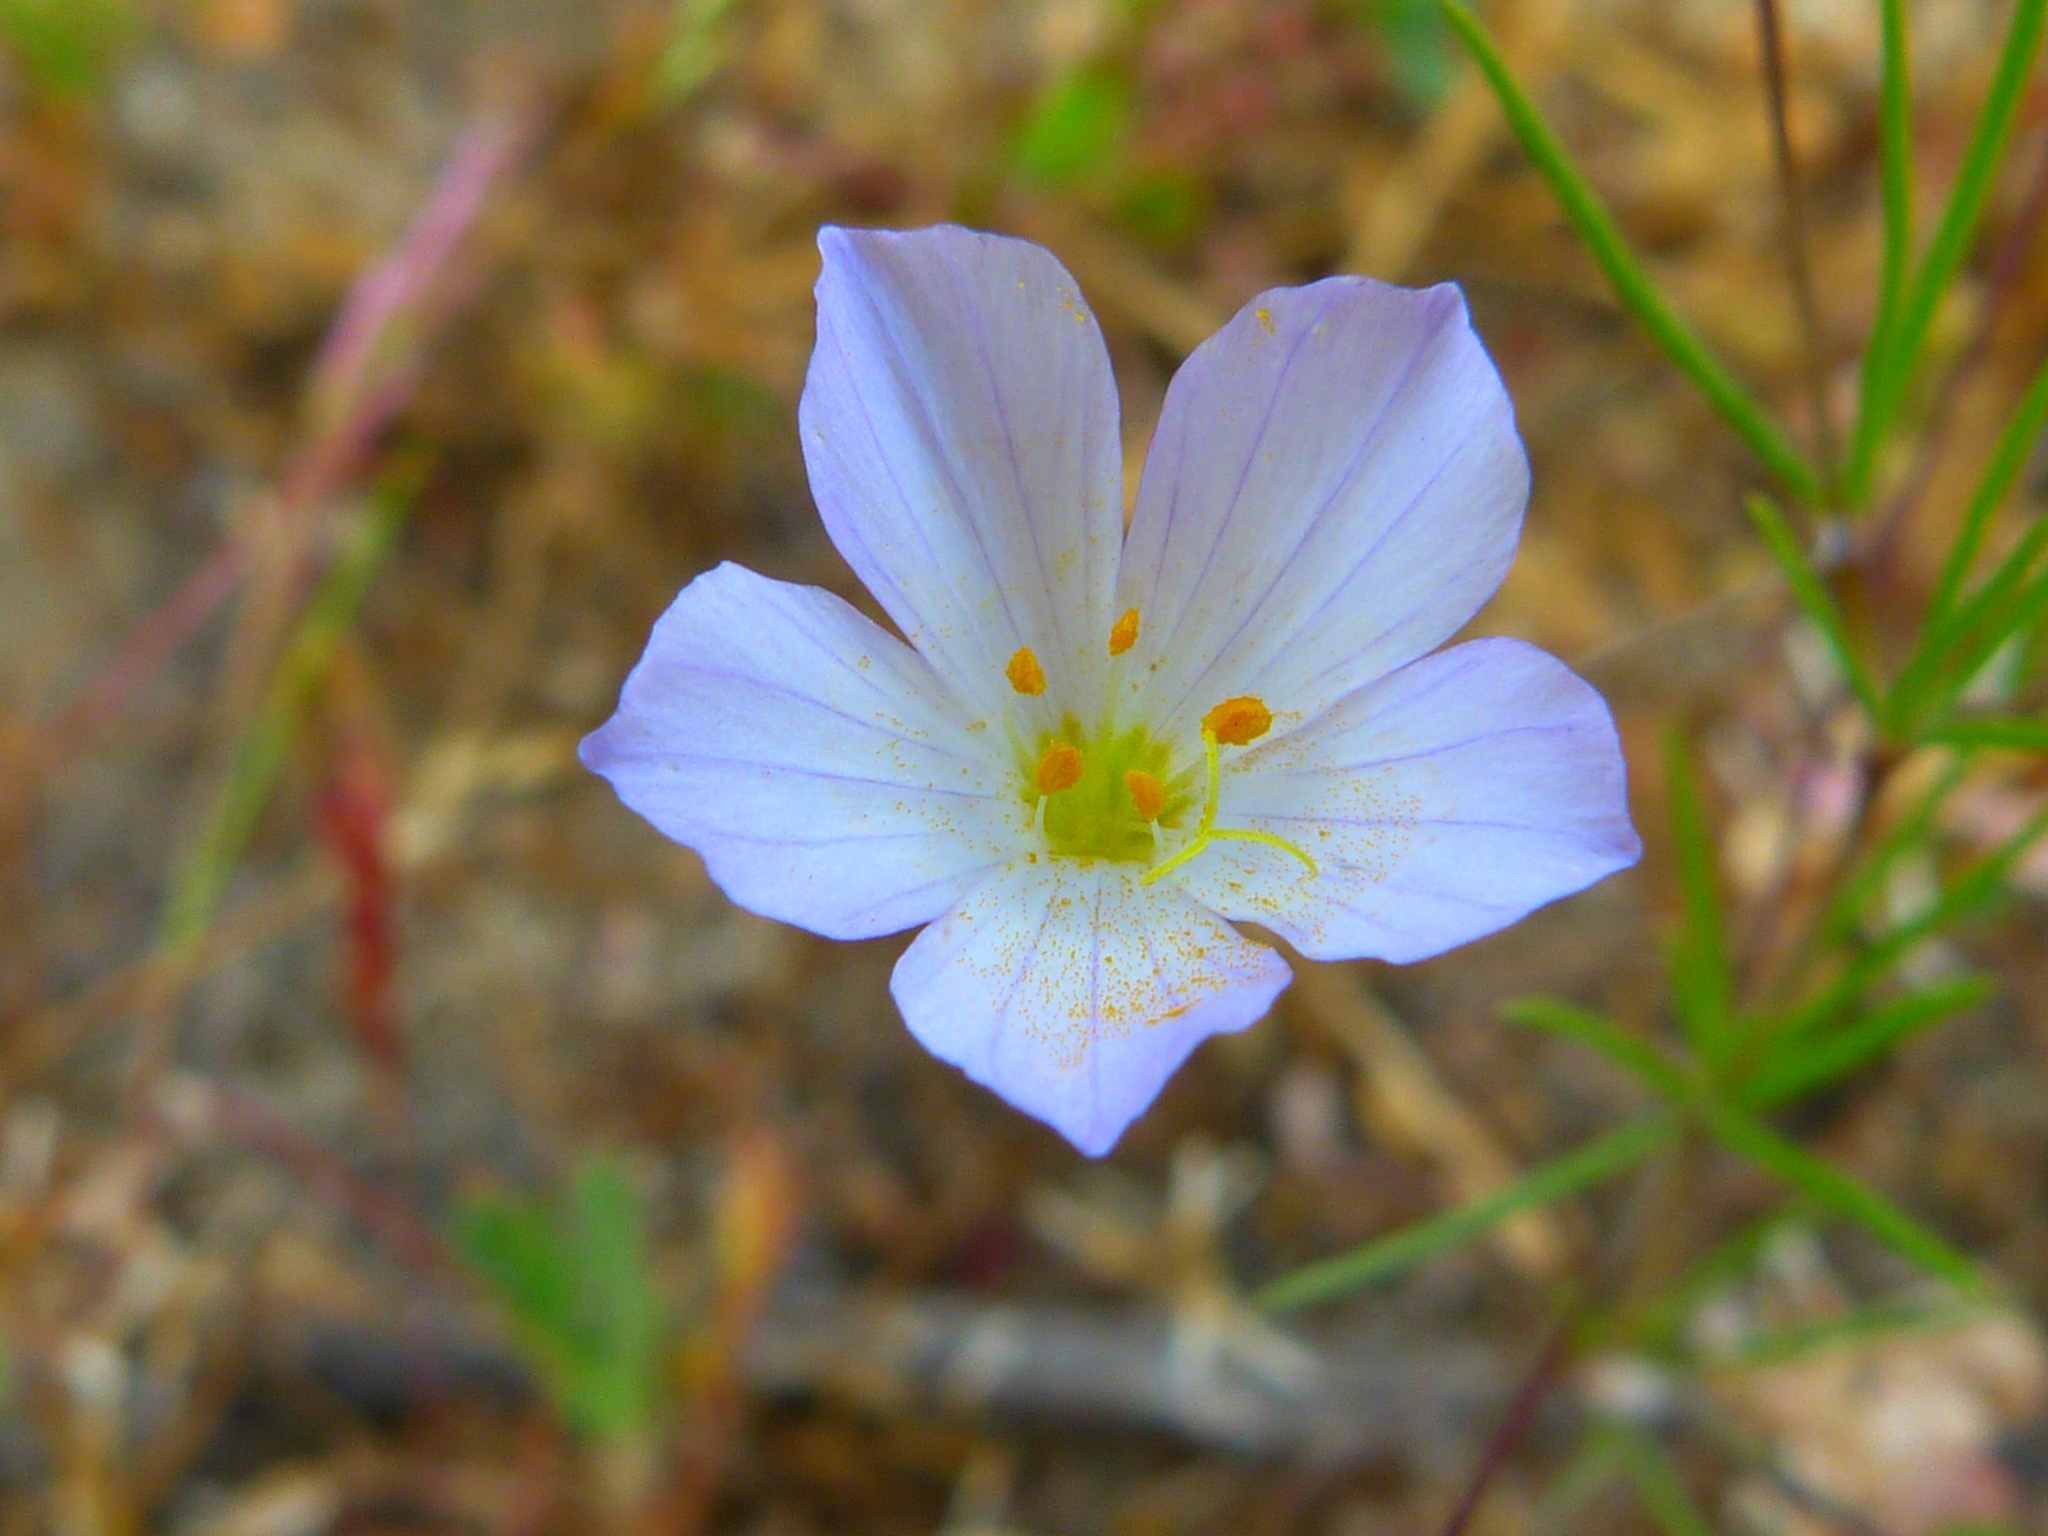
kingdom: Plantae
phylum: Tracheophyta
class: Magnoliopsida
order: Ericales
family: Polemoniaceae
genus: Leptosiphon
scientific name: Leptosiphon liniflorus
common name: Narrowflower flaxflower
